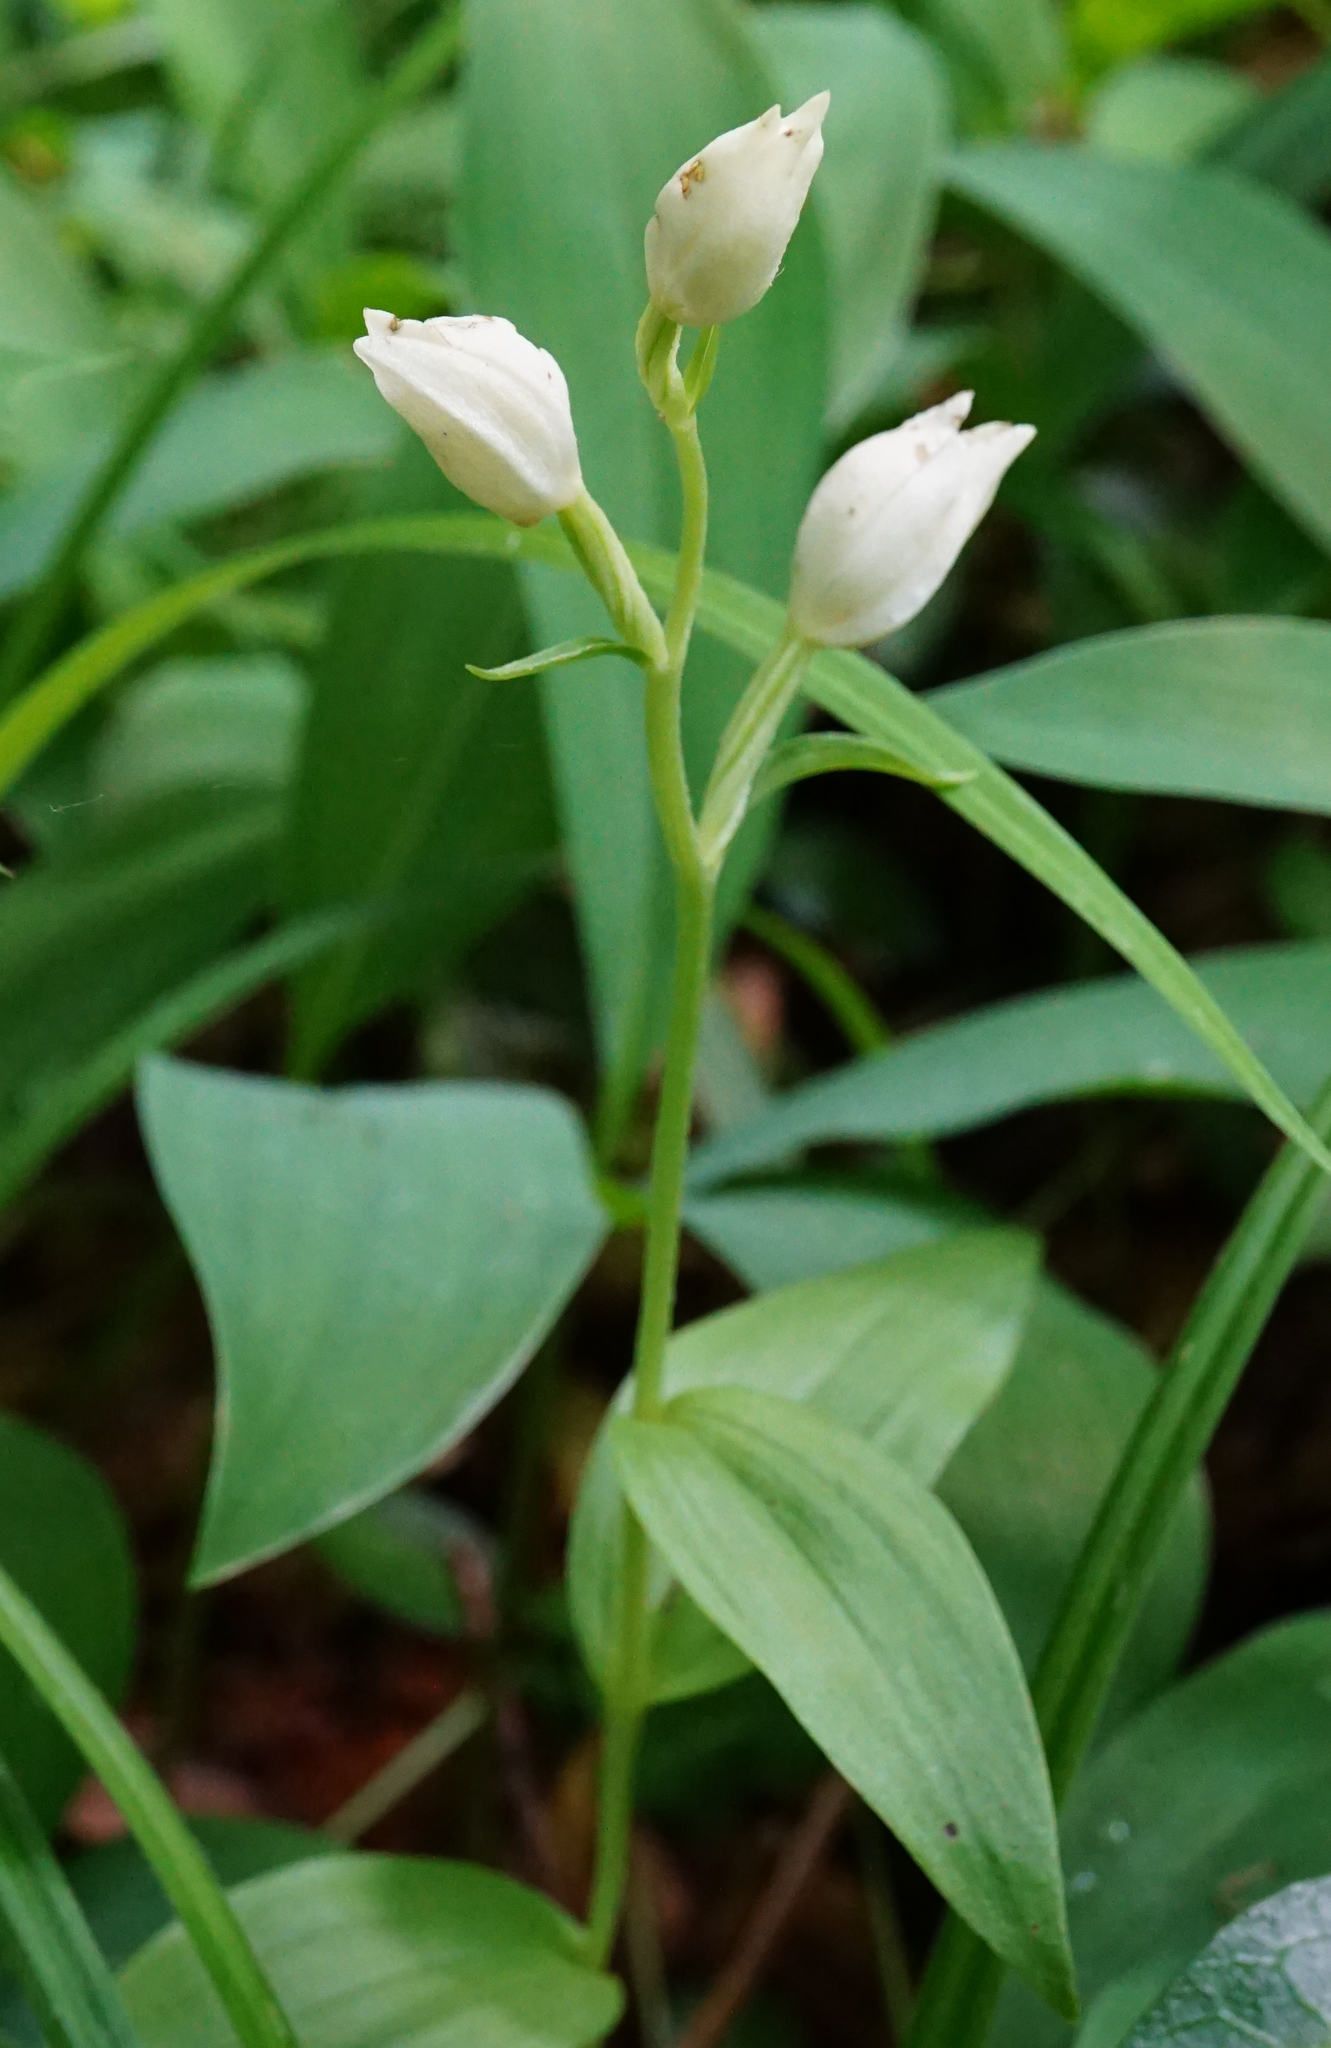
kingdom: Plantae
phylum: Tracheophyta
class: Liliopsida
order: Asparagales
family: Orchidaceae
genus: Cephalanthera
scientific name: Cephalanthera damasonium
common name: White helleborine
